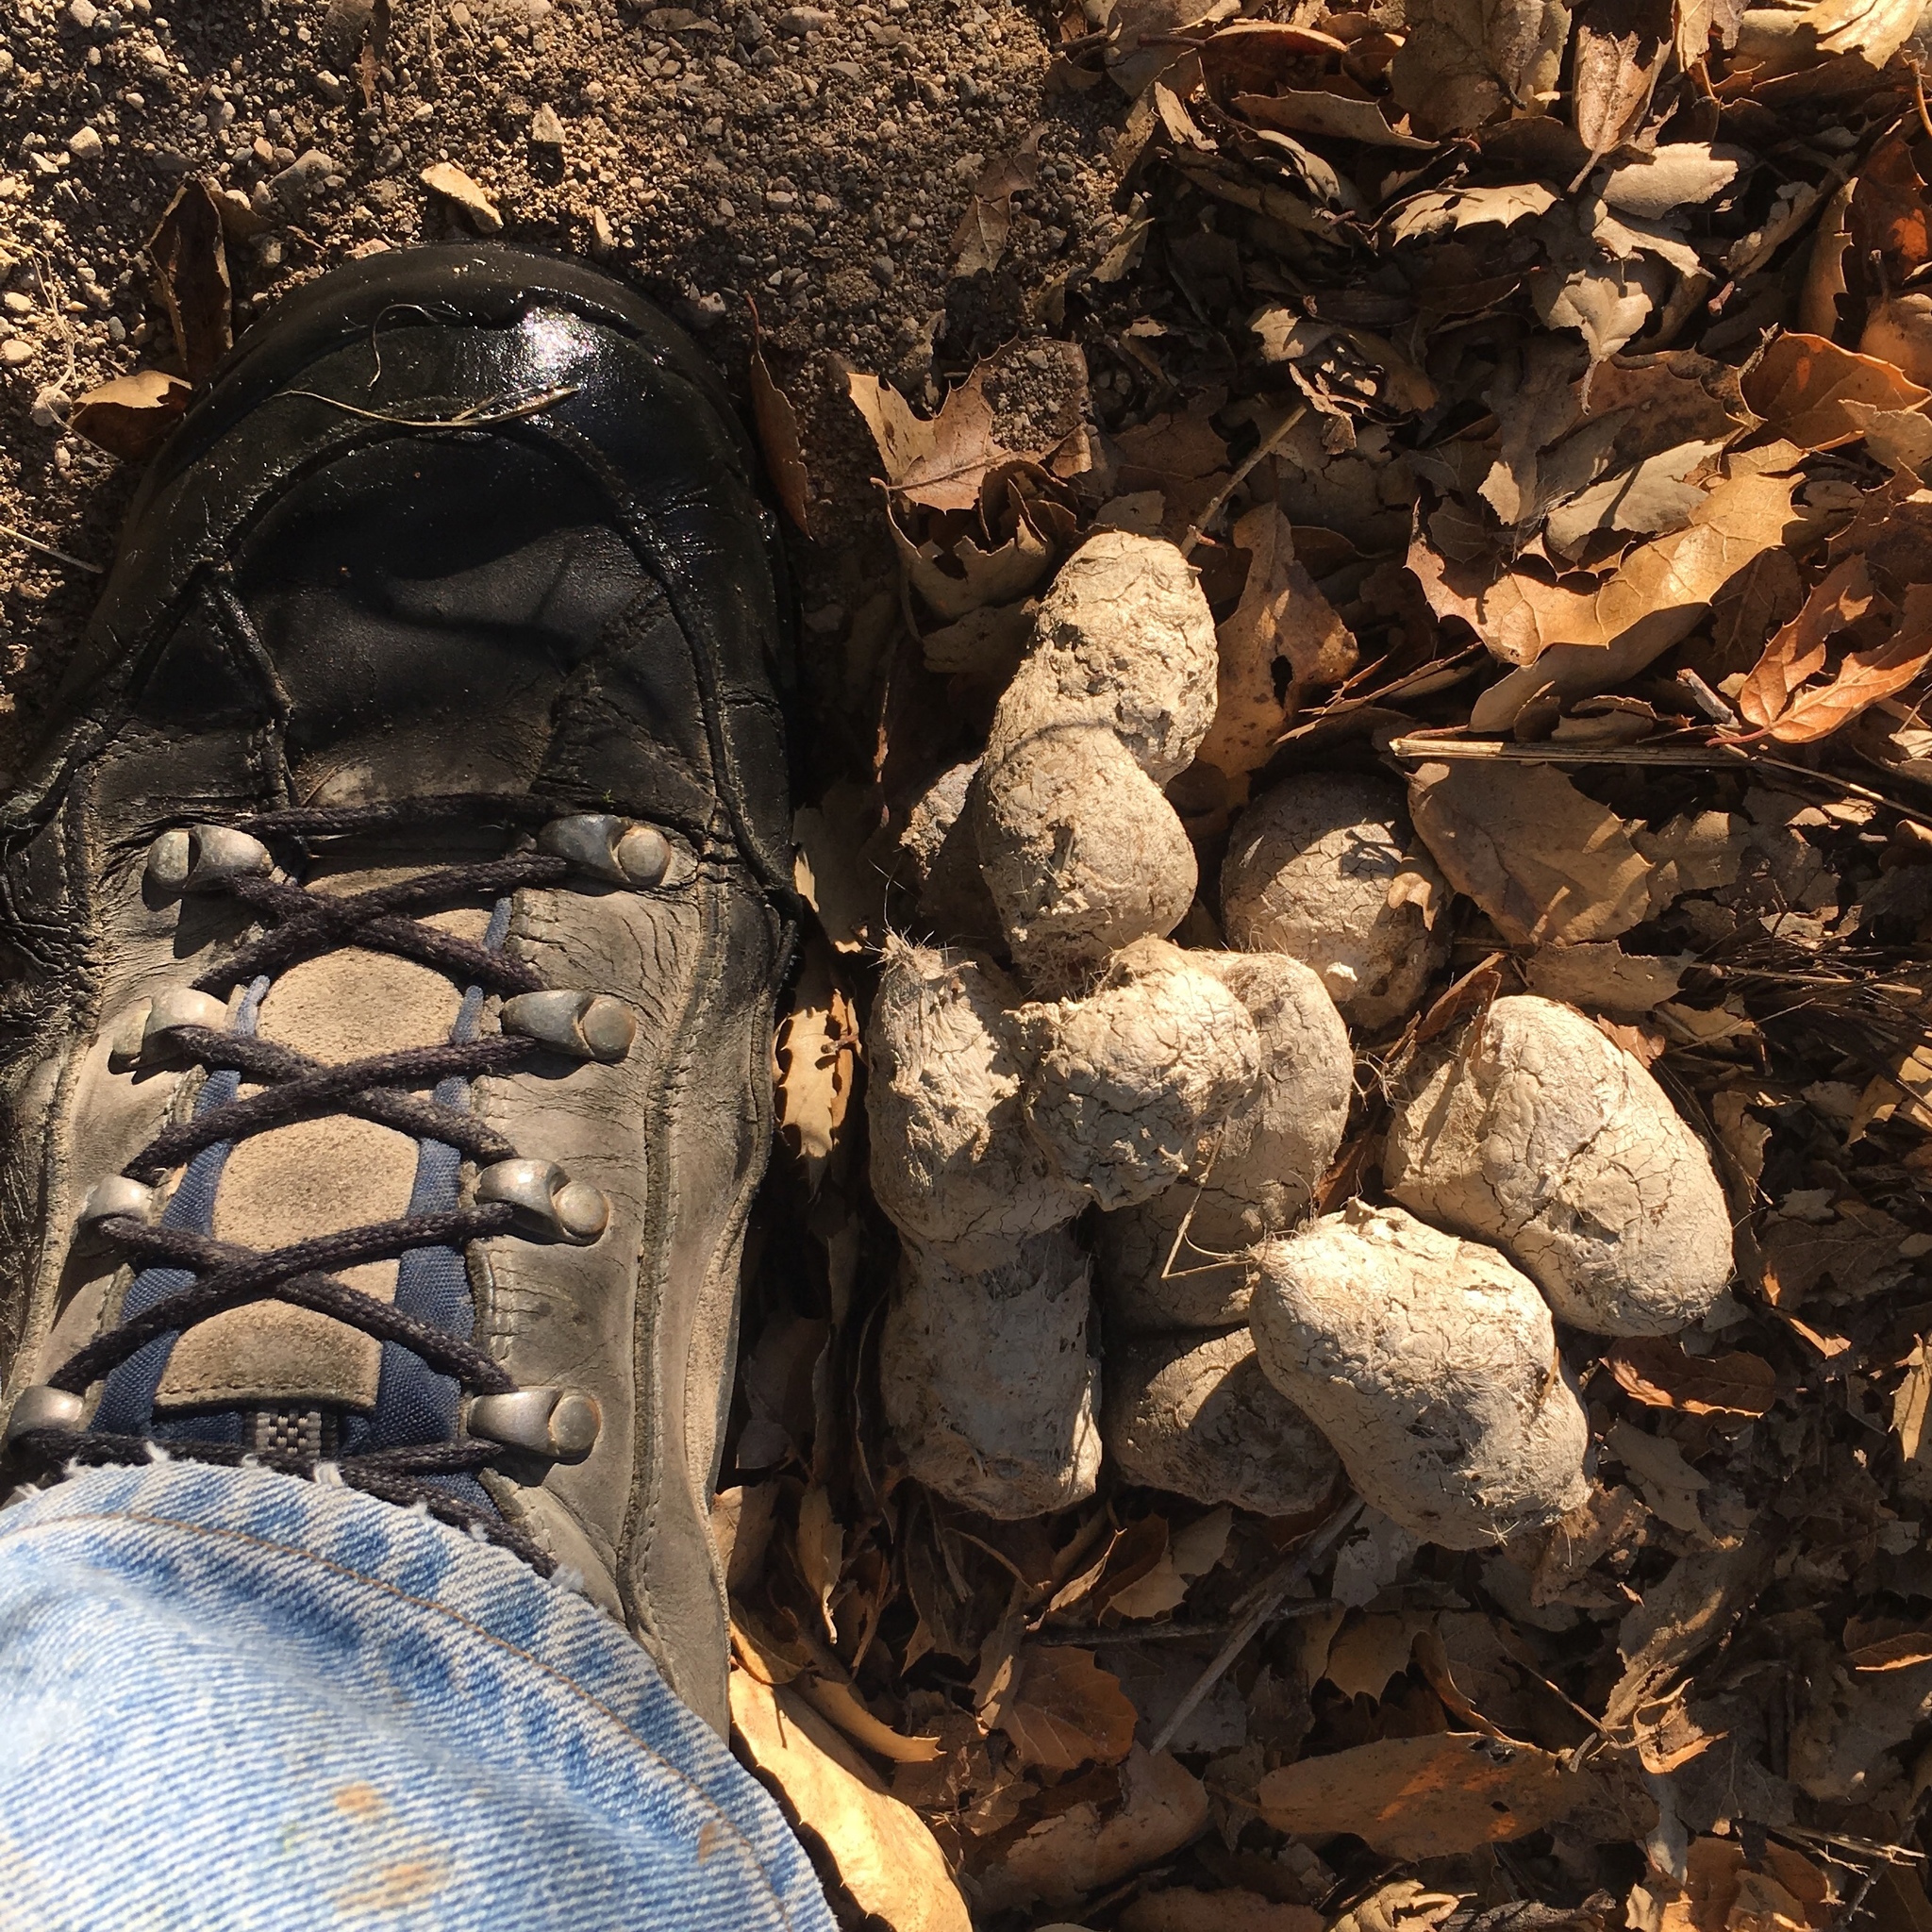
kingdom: Animalia
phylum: Chordata
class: Mammalia
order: Carnivora
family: Felidae
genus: Puma
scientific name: Puma concolor
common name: Puma
